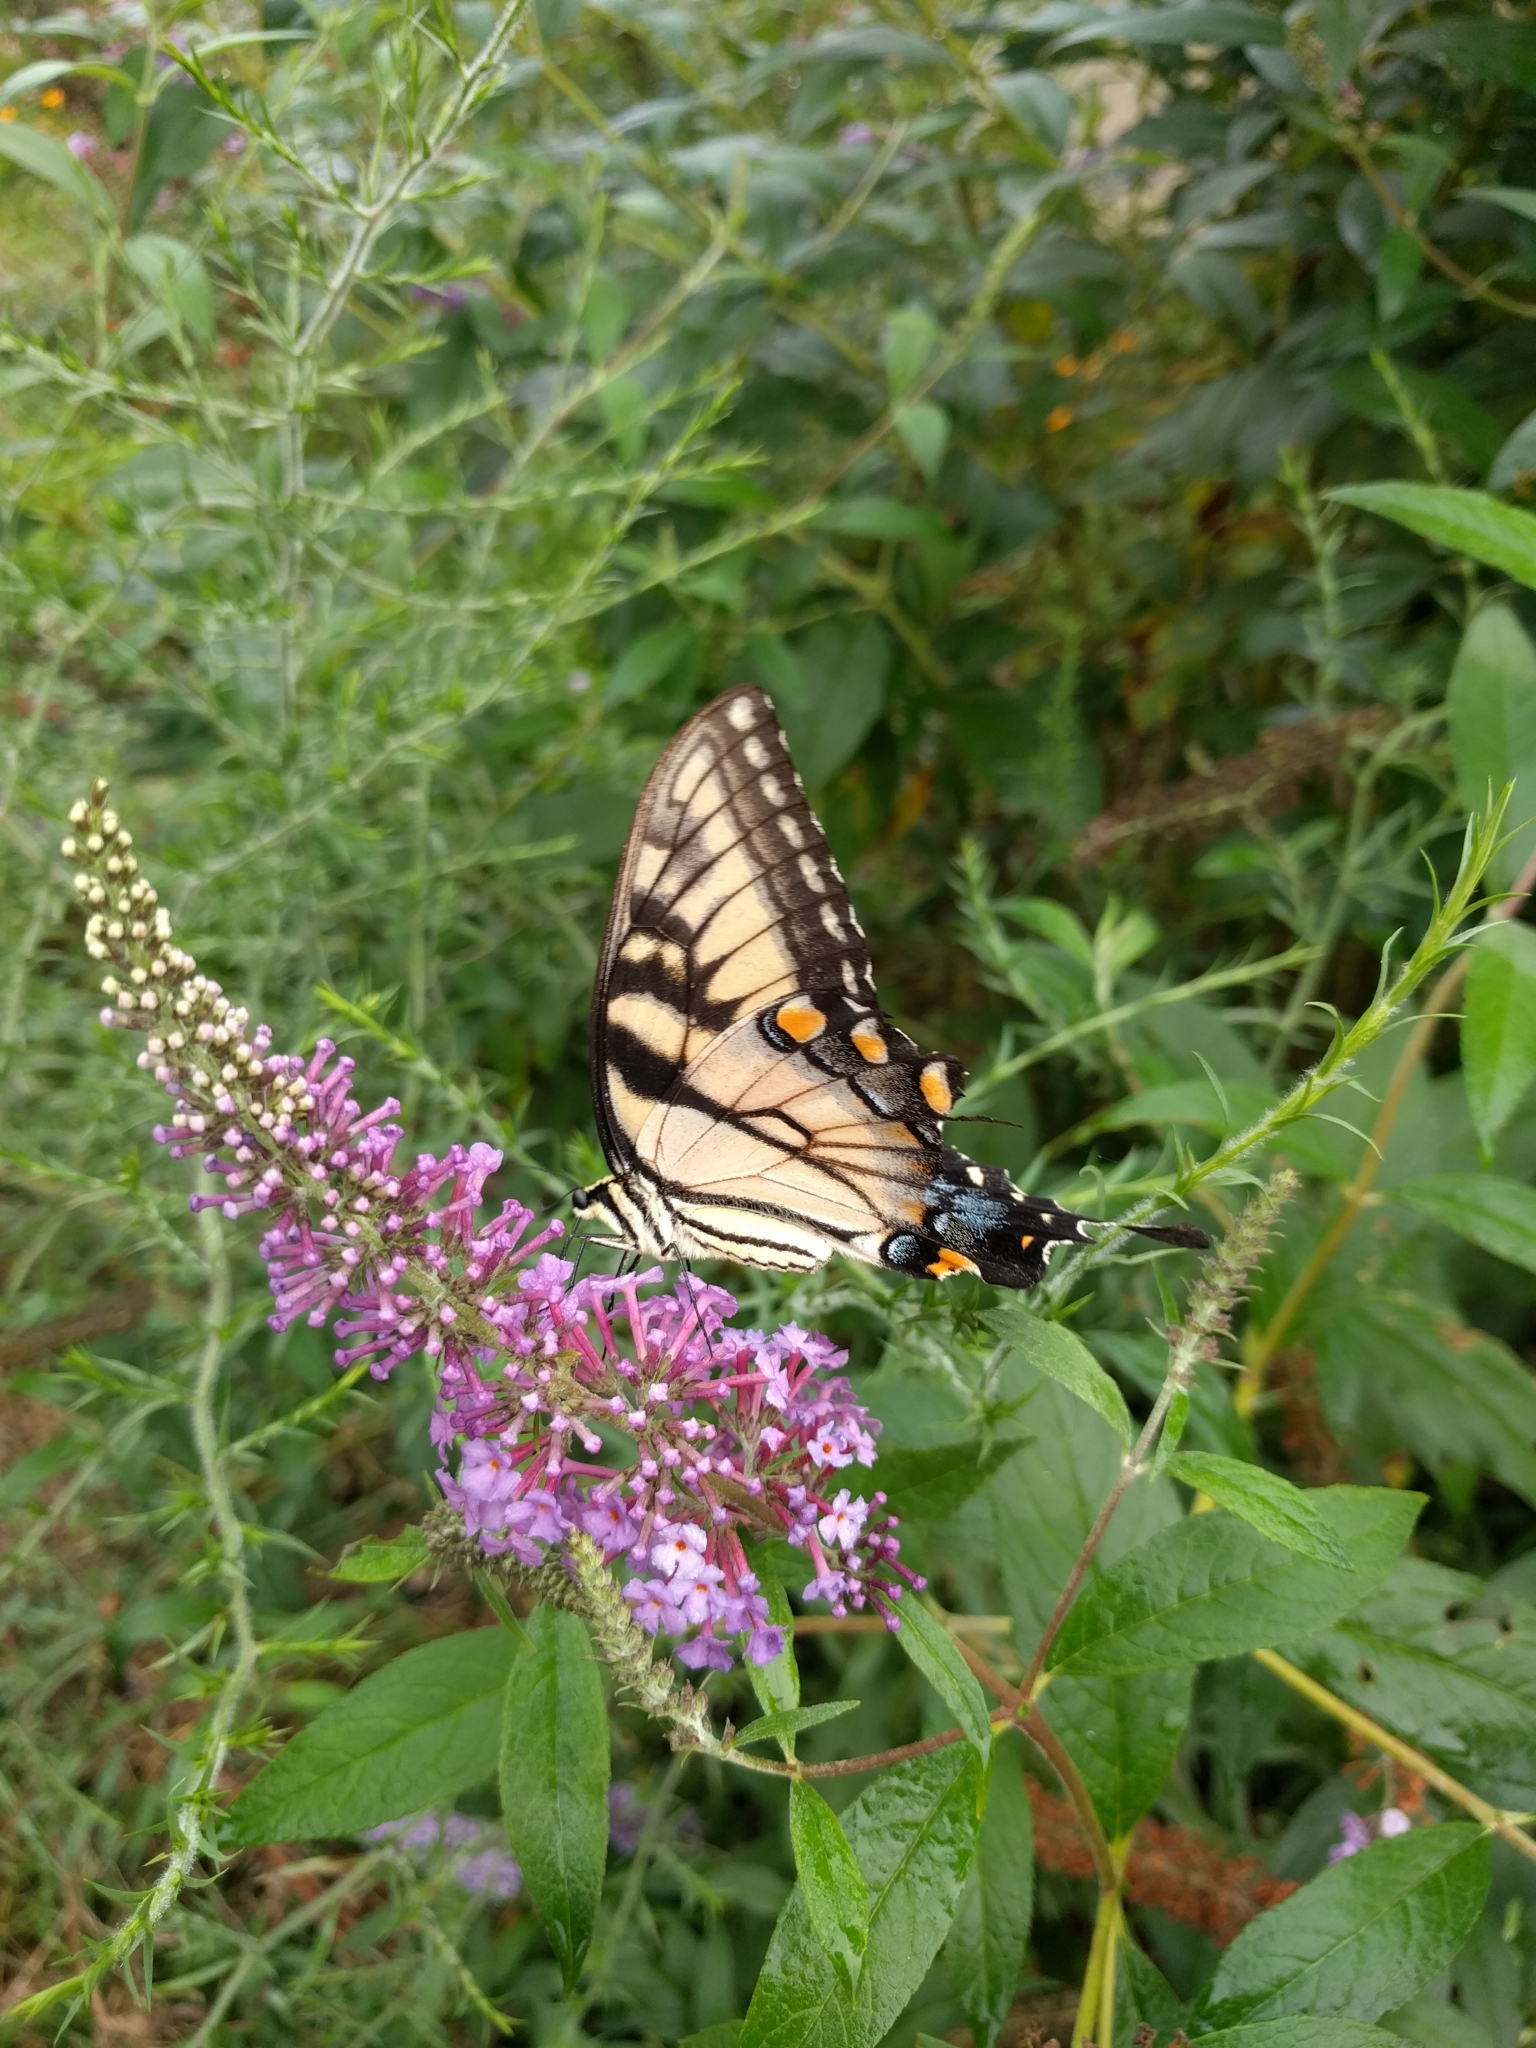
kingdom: Animalia
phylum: Arthropoda
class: Insecta
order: Lepidoptera
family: Papilionidae
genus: Papilio
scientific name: Papilio glaucus
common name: Tiger swallowtail
